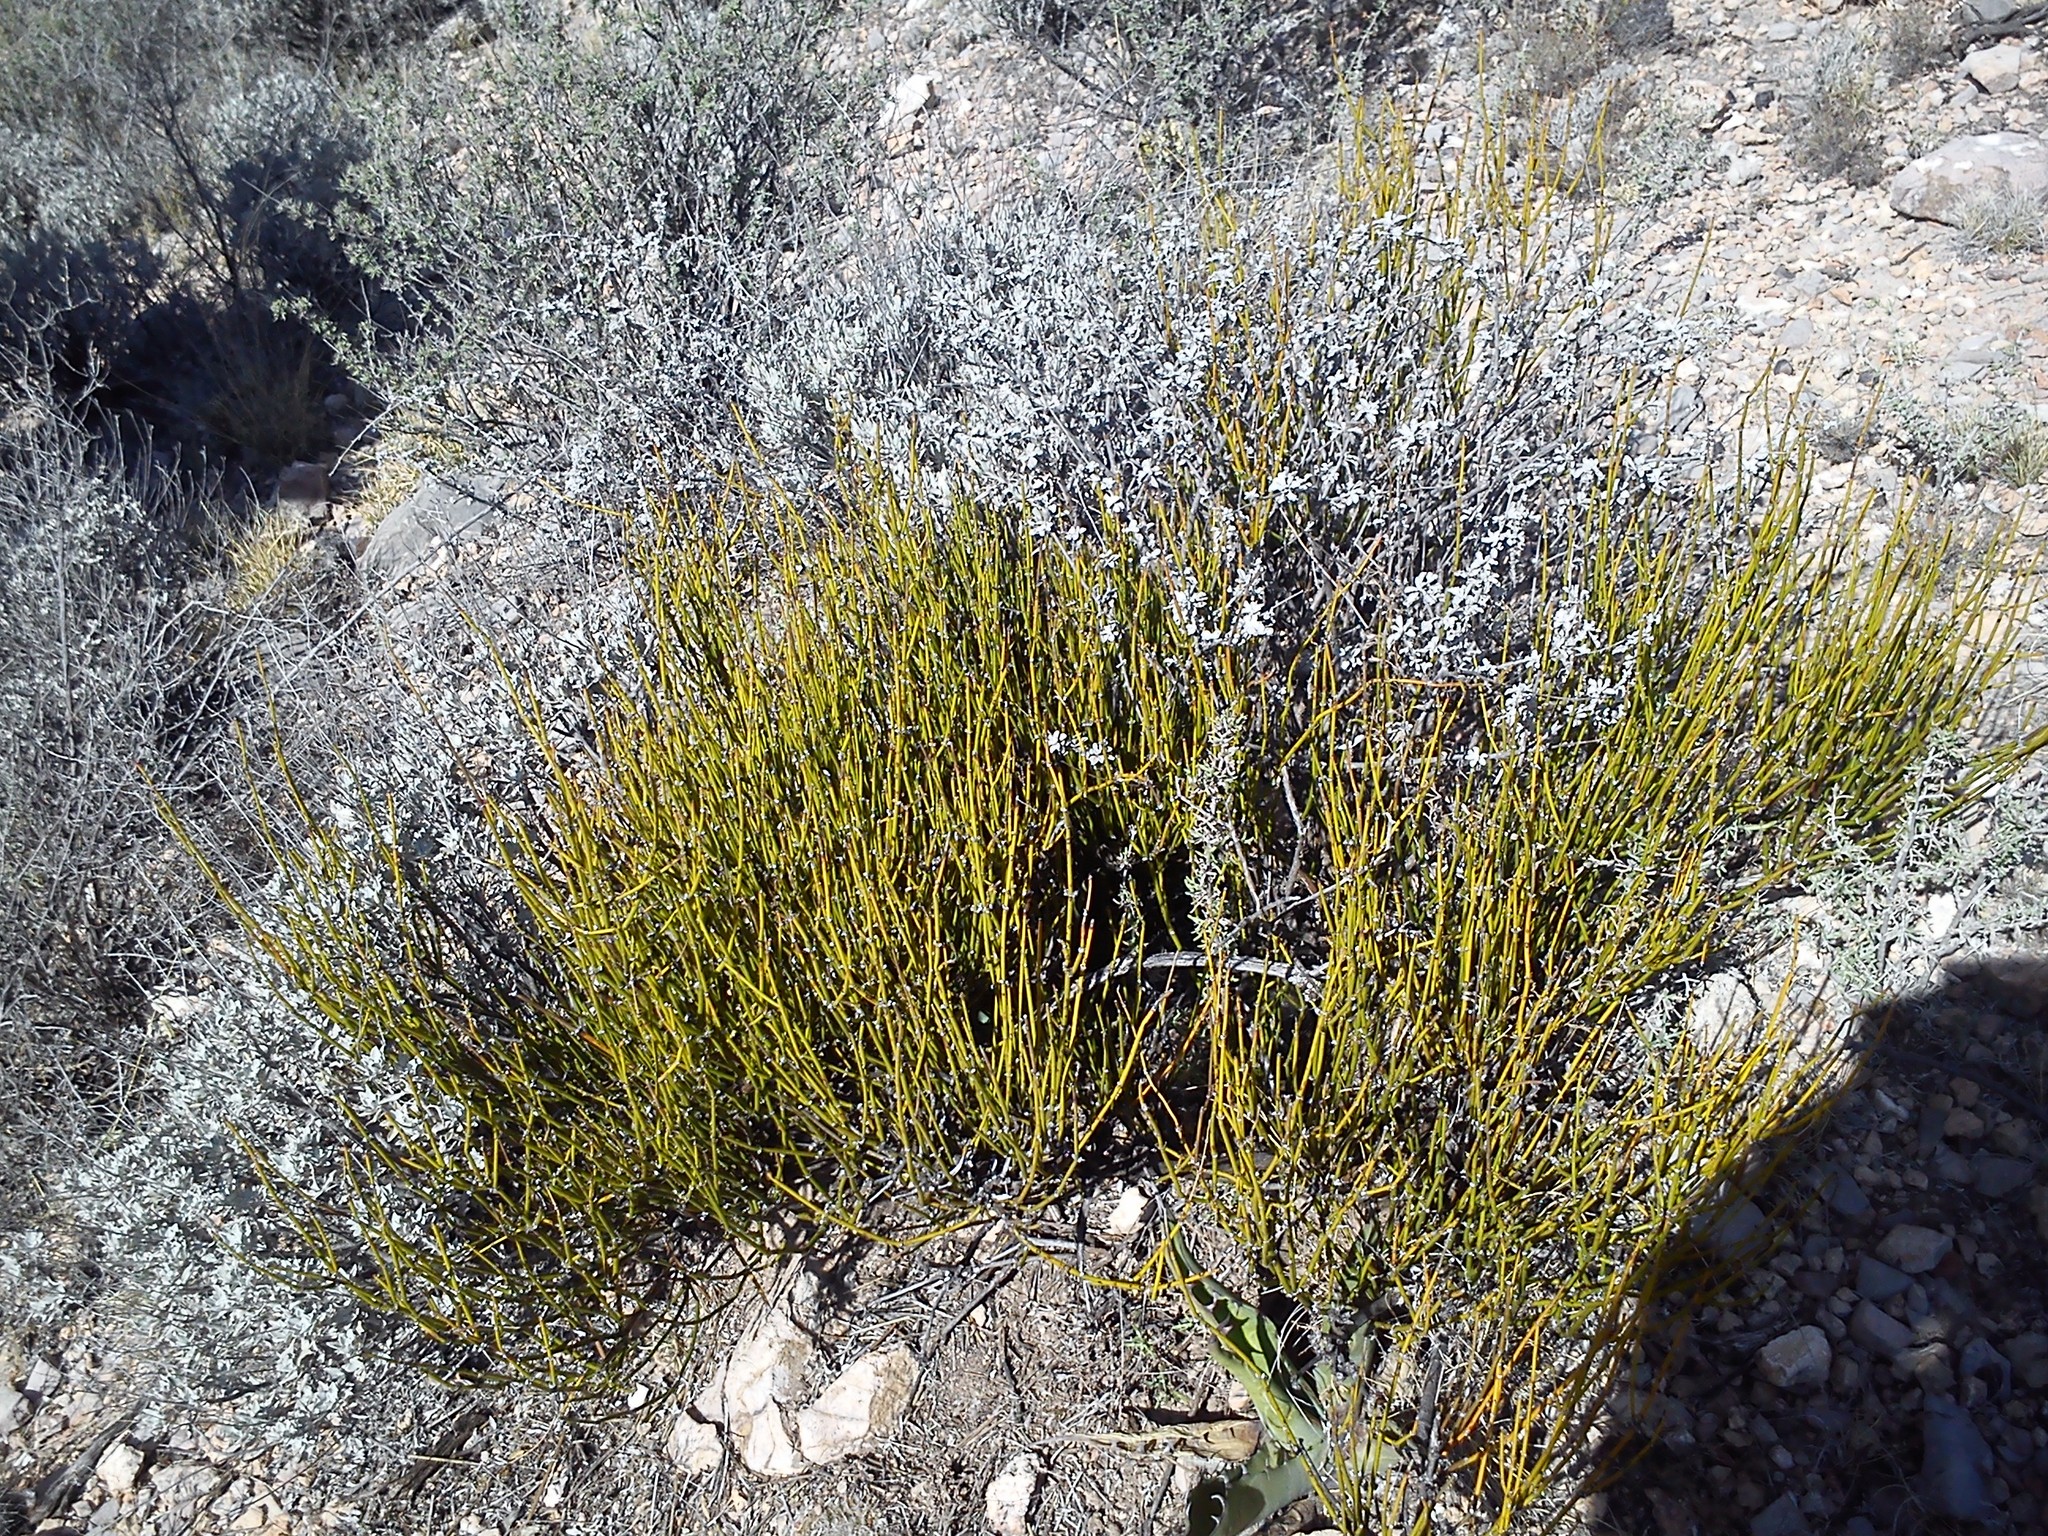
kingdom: Plantae
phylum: Tracheophyta
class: Gnetopsida
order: Ephedrales
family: Ephedraceae
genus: Ephedra
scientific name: Ephedra antisyphilitica
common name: Clipweed
